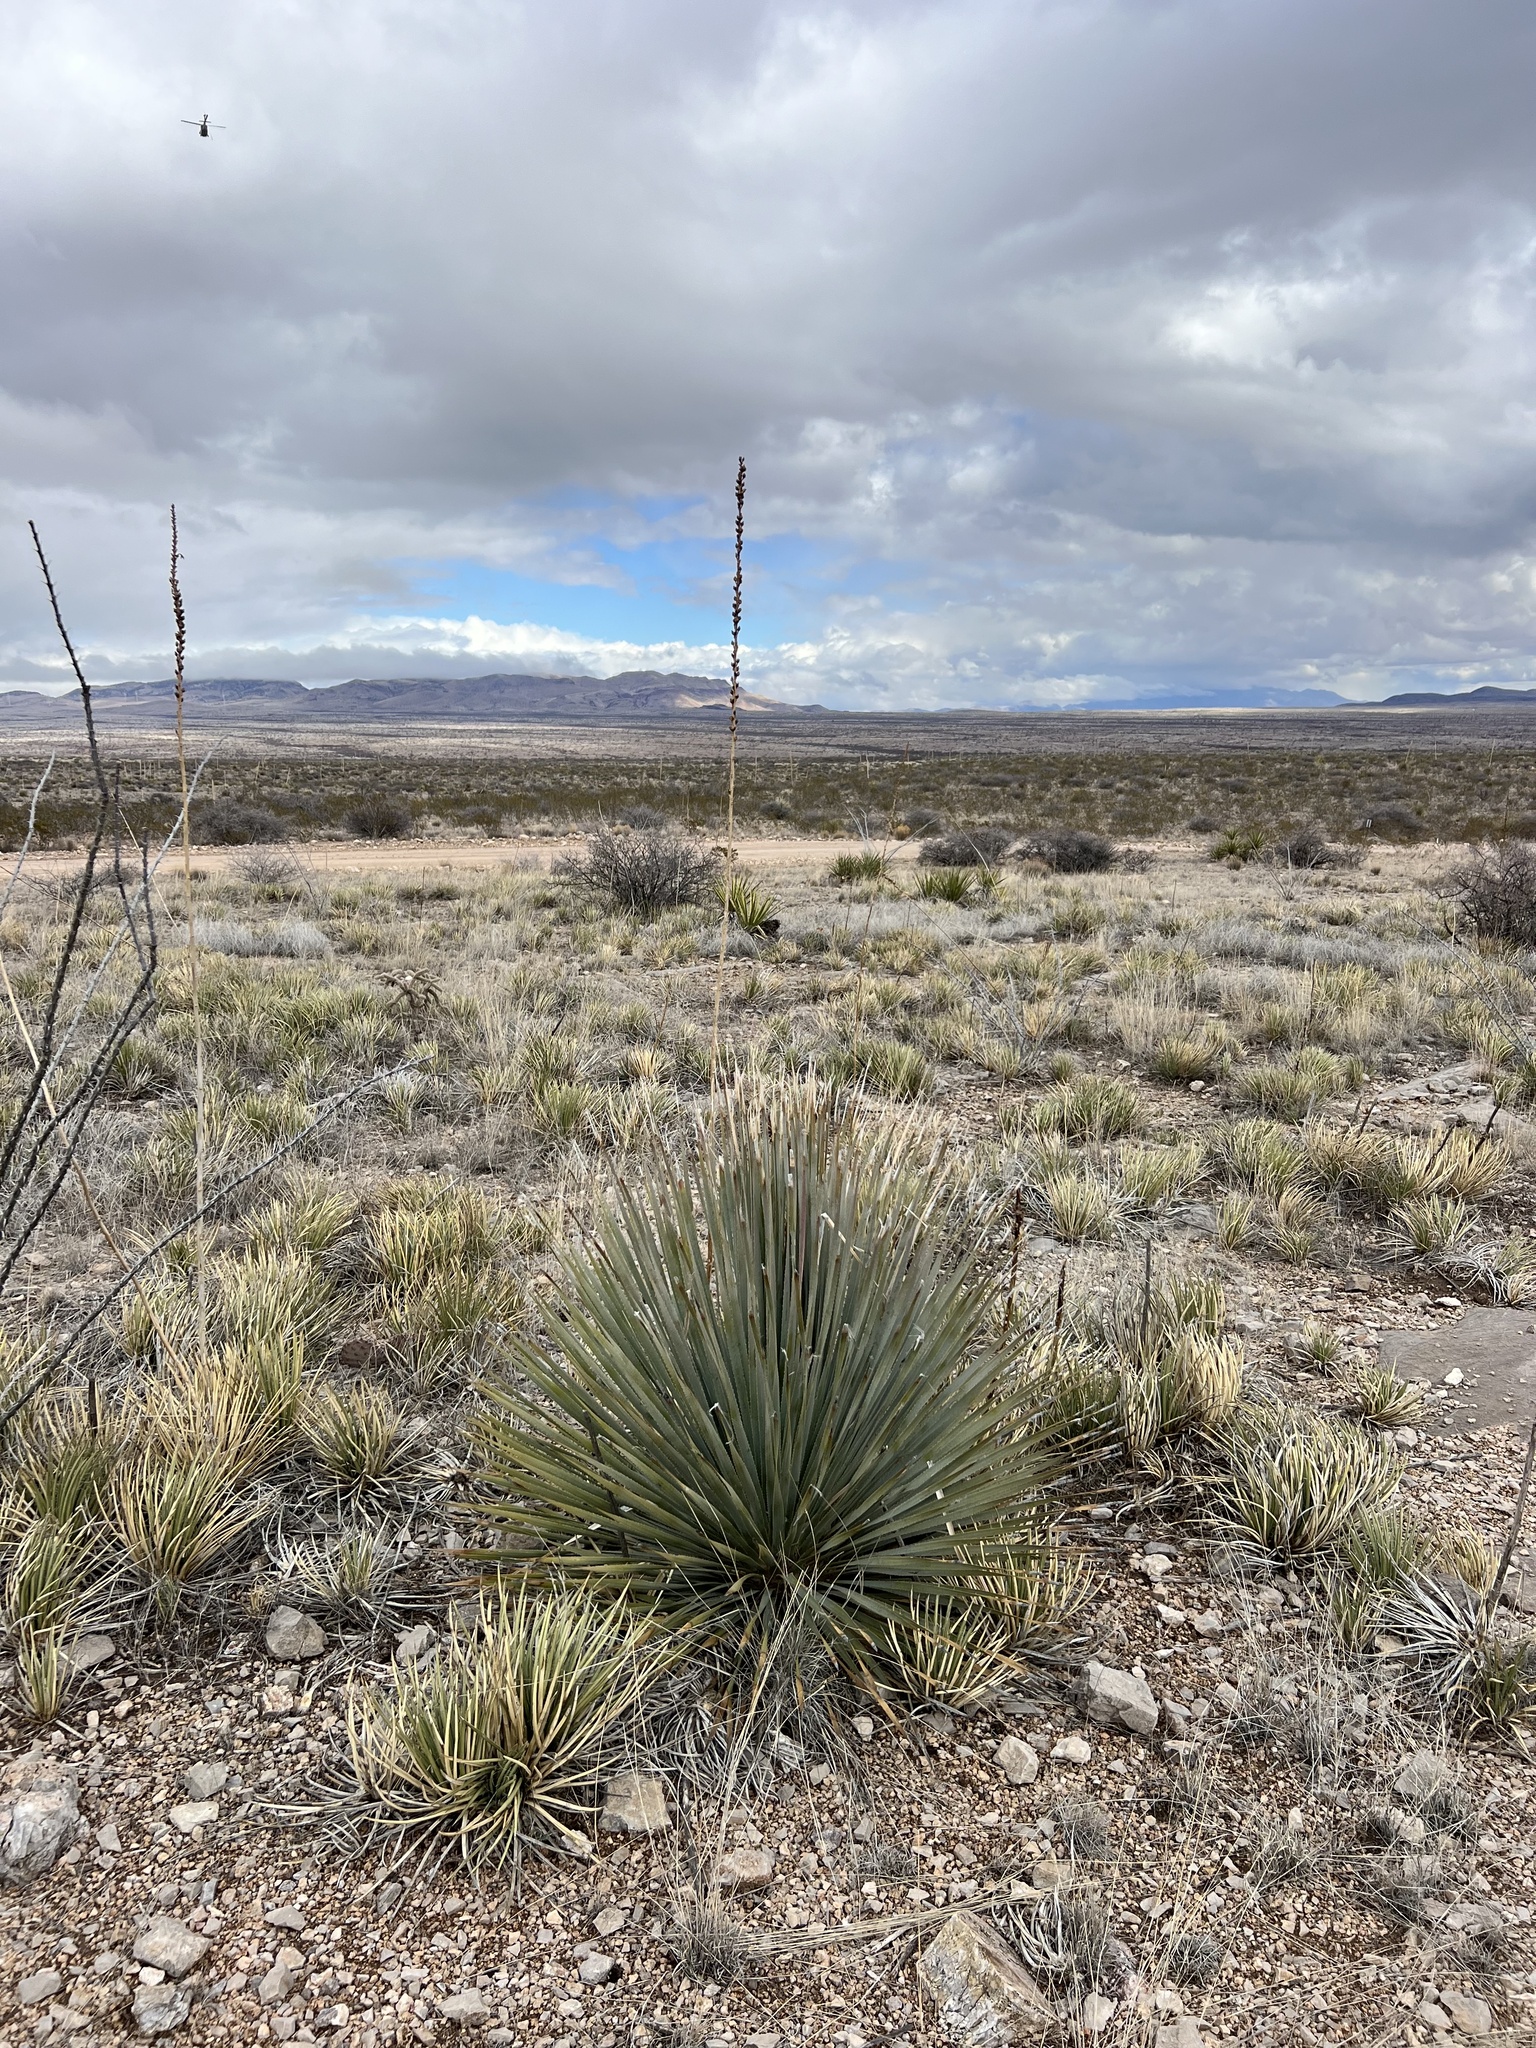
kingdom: Plantae
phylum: Tracheophyta
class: Liliopsida
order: Asparagales
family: Asparagaceae
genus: Dasylirion
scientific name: Dasylirion wheeleri
